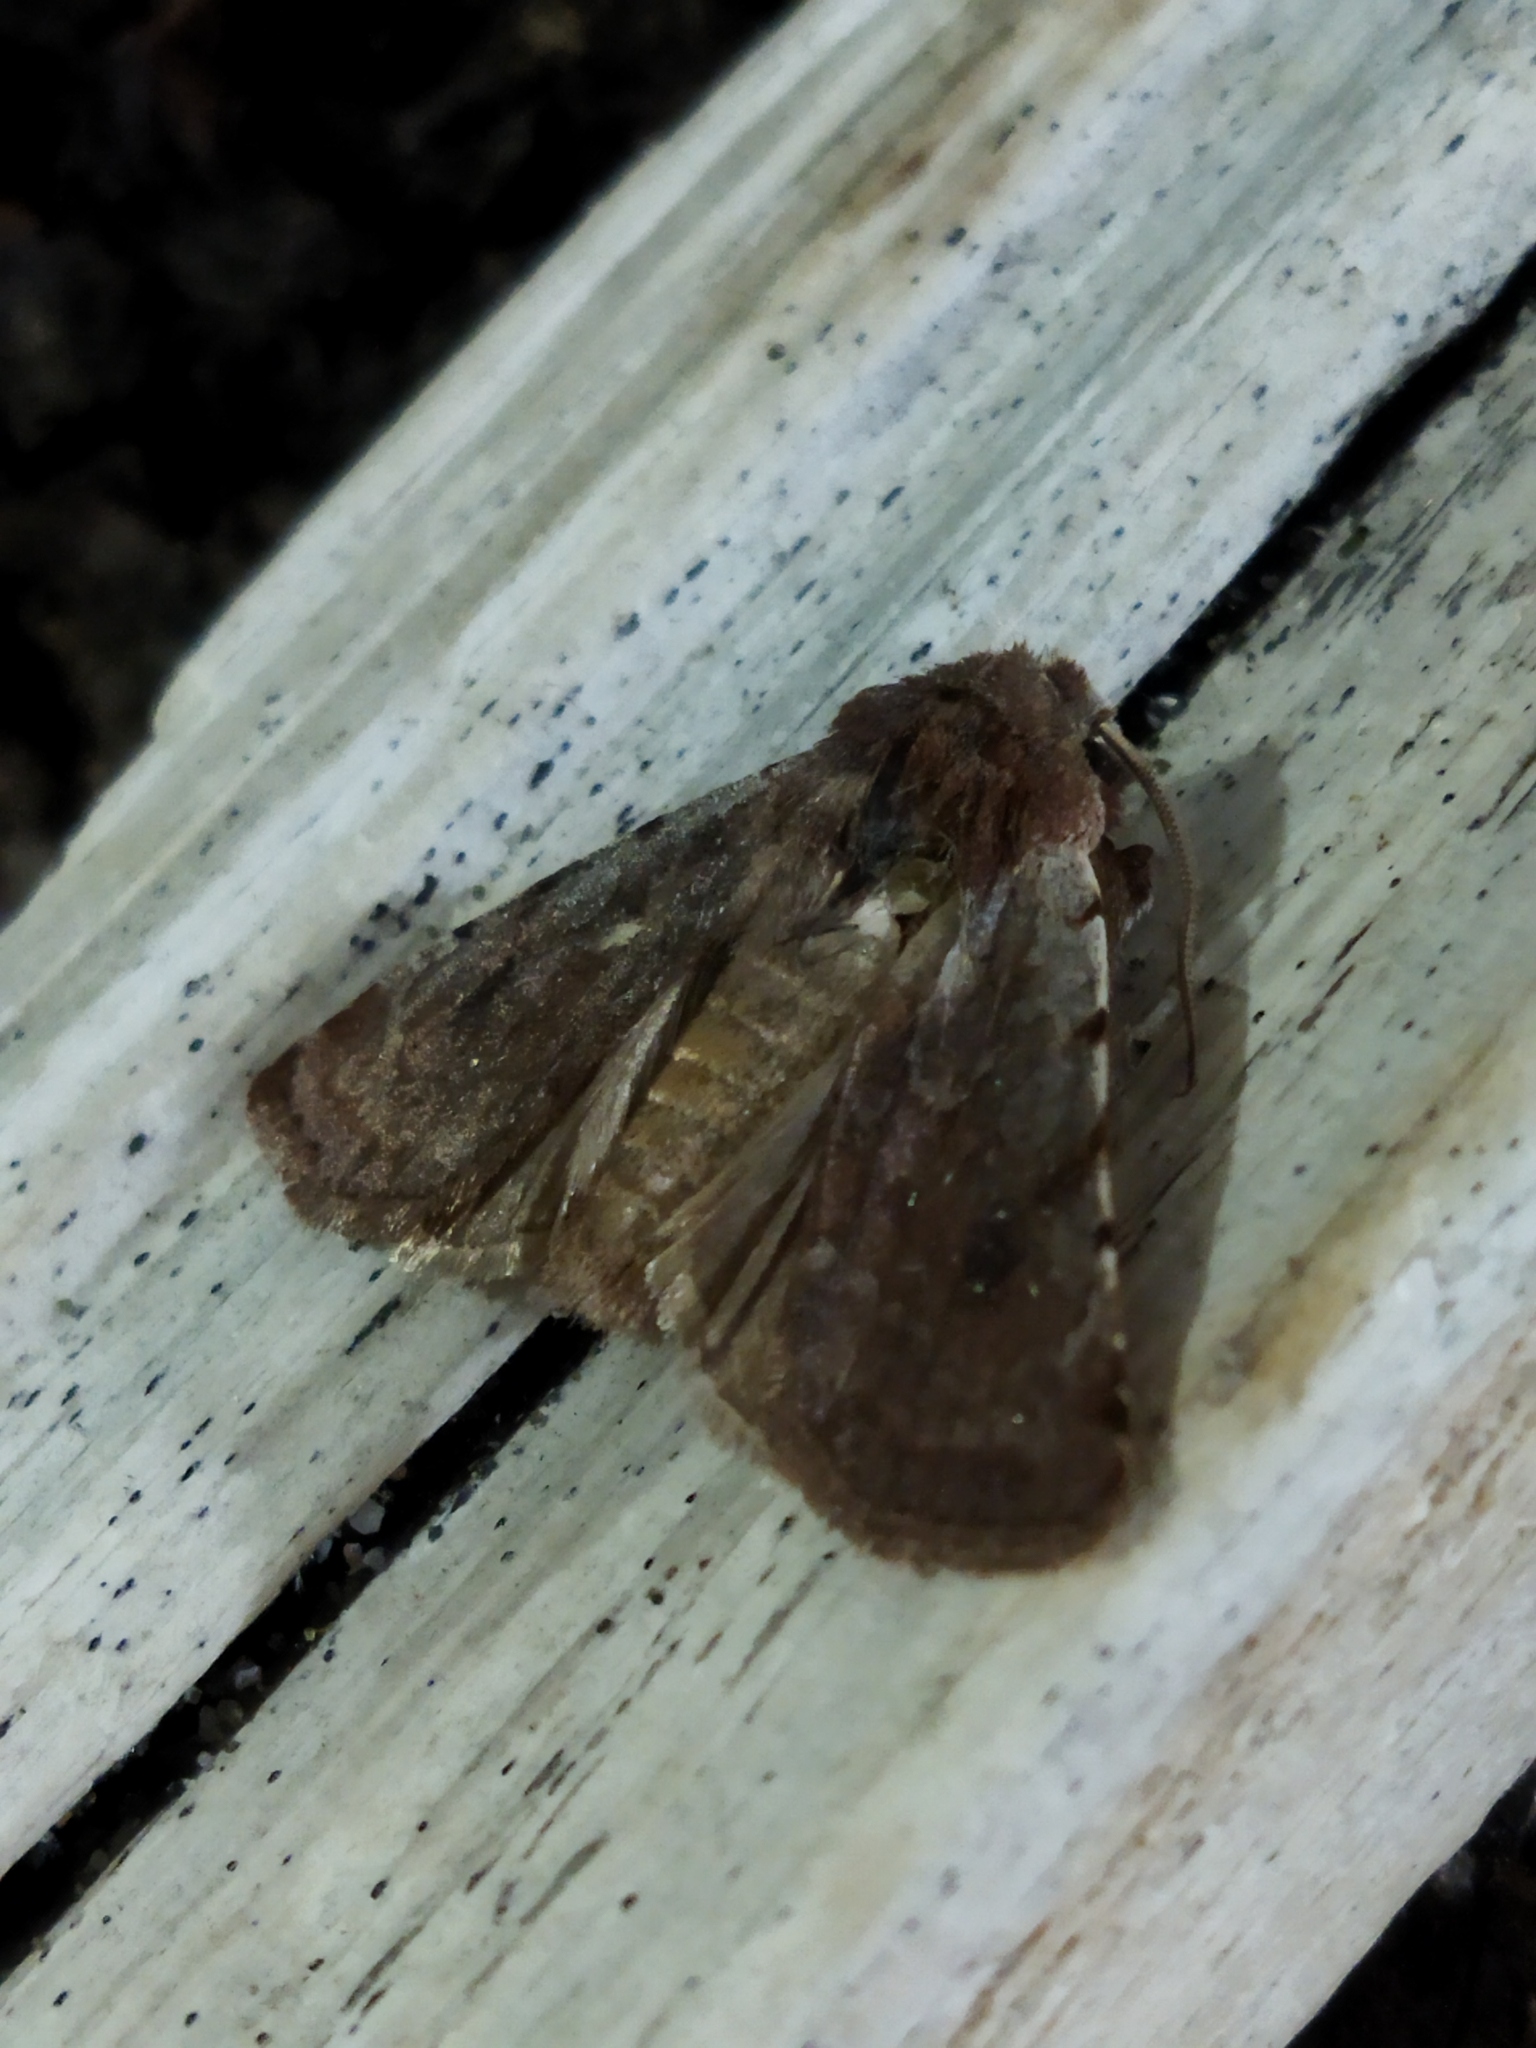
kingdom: Animalia
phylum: Arthropoda
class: Insecta
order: Lepidoptera
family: Noctuidae
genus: Cerastis
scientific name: Cerastis rubricosa
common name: Red chestnut
